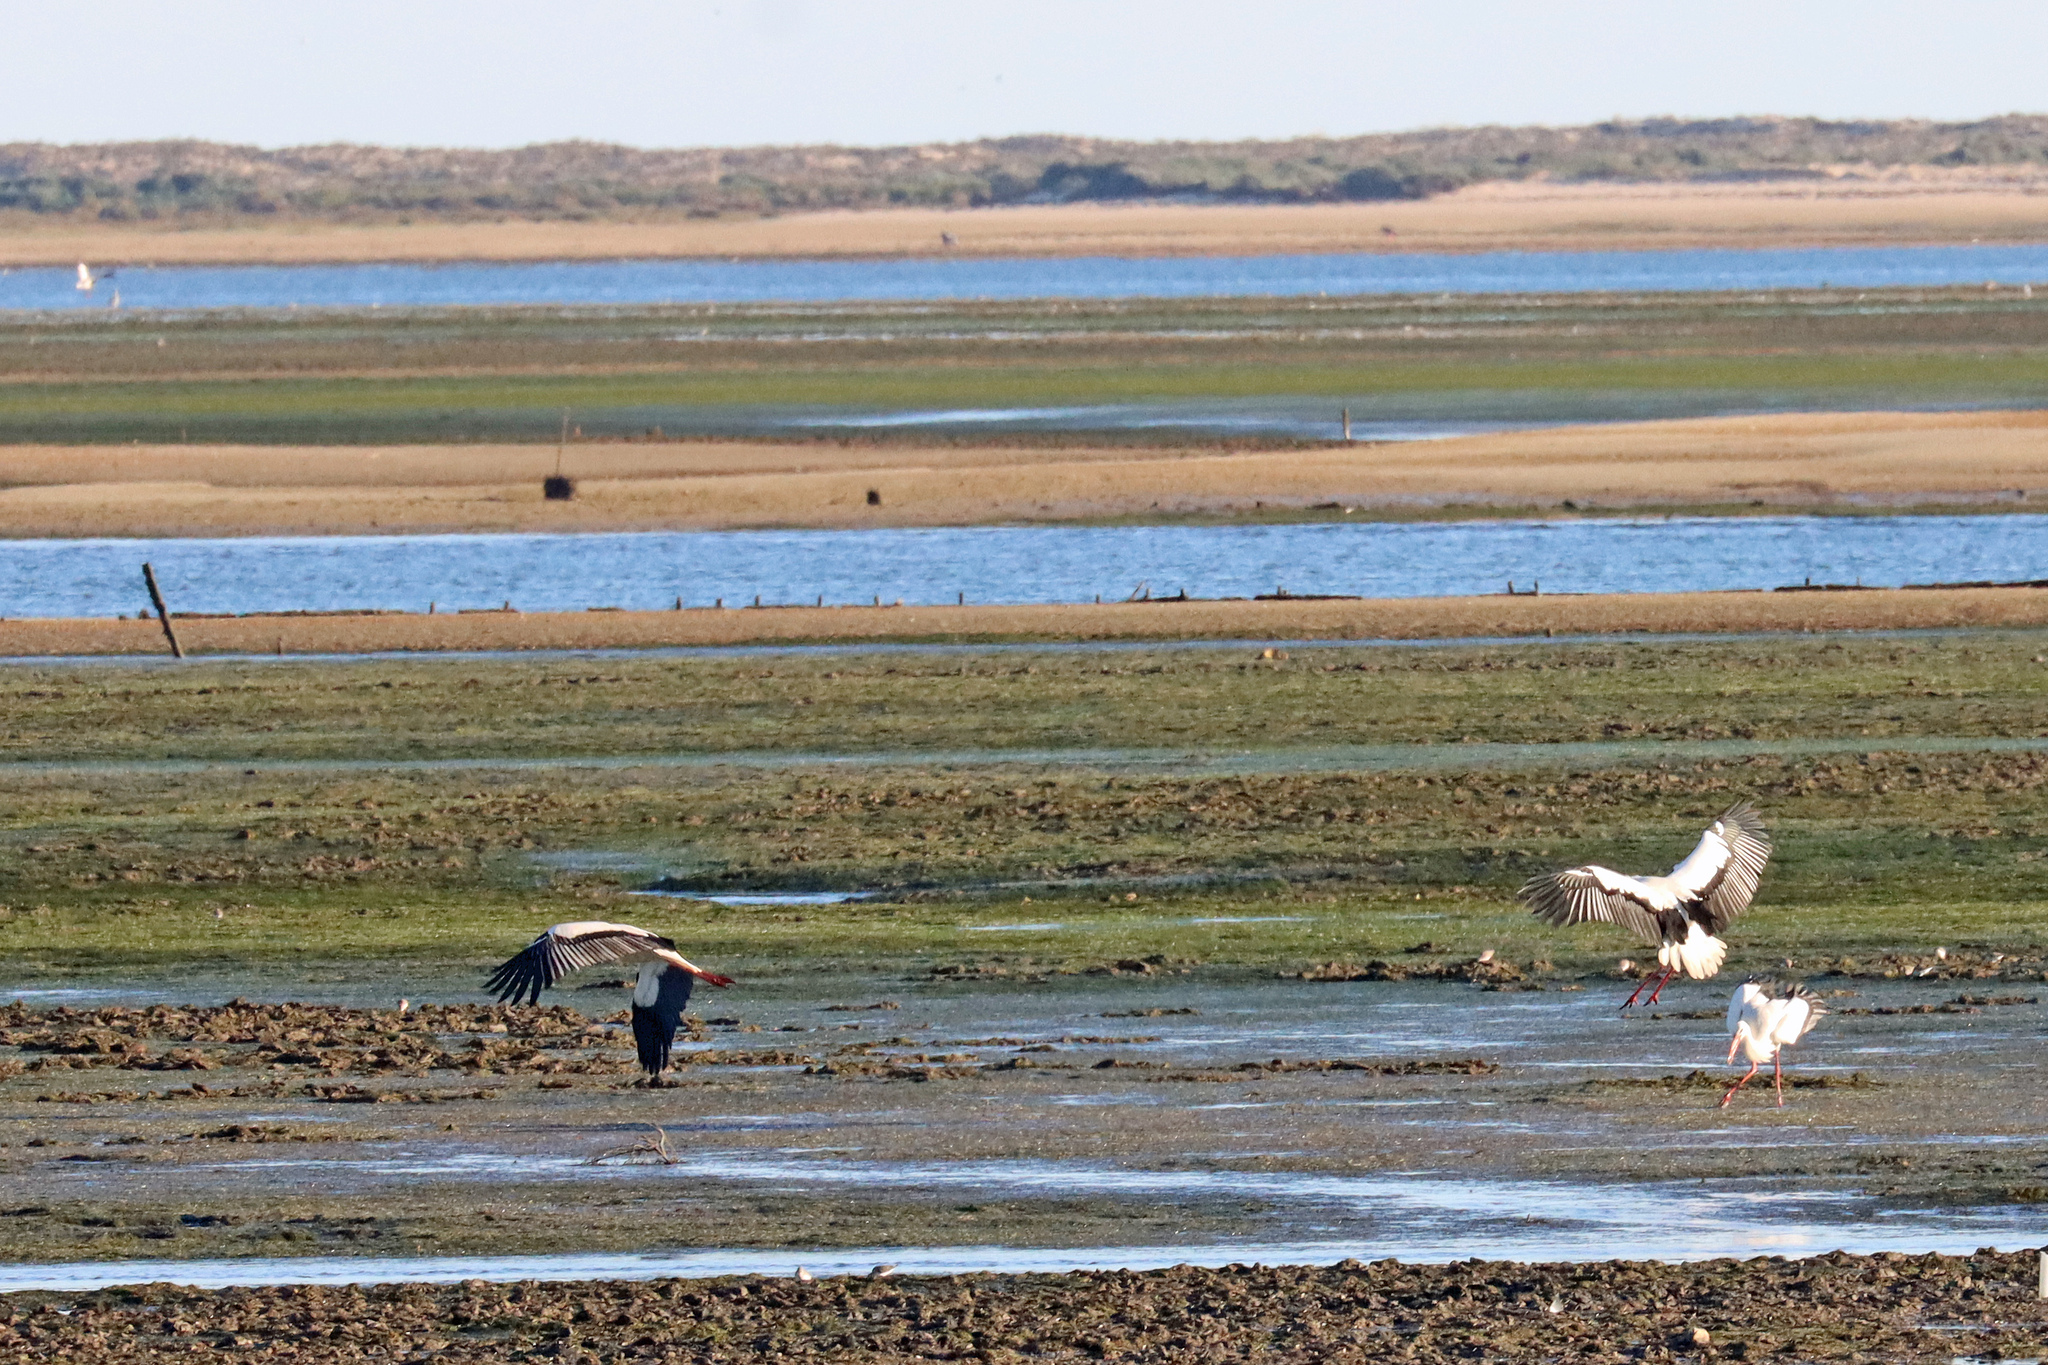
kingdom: Animalia
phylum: Chordata
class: Aves
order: Ciconiiformes
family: Ciconiidae
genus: Ciconia
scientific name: Ciconia ciconia
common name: White stork
